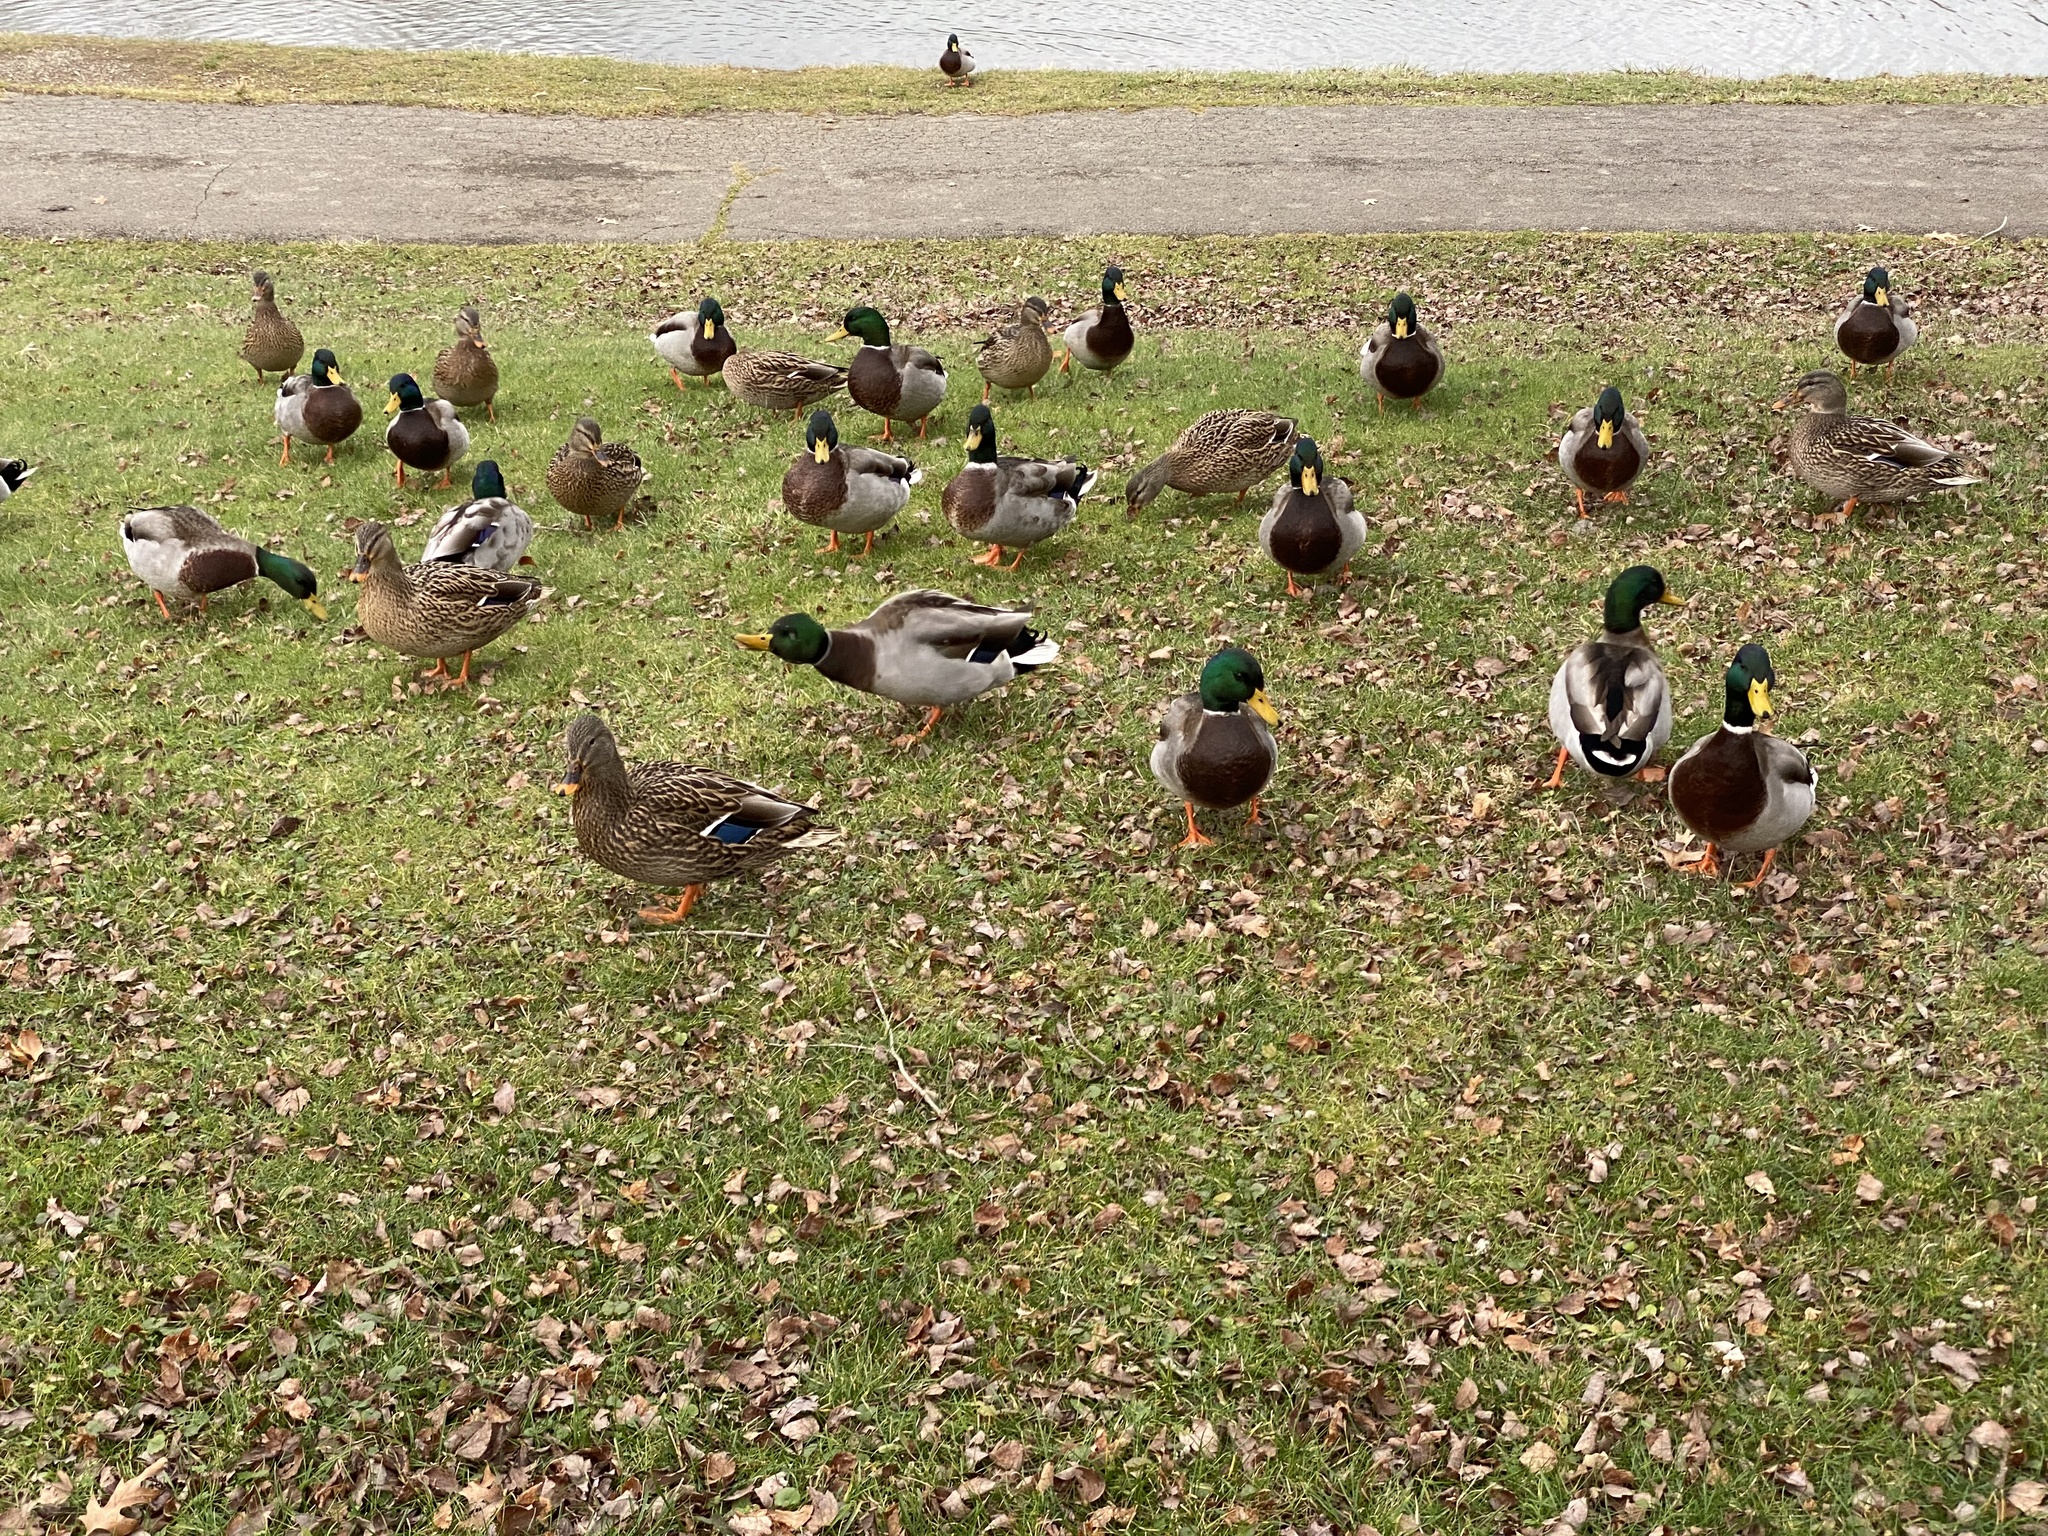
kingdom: Animalia
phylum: Chordata
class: Aves
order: Anseriformes
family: Anatidae
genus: Anas
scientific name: Anas platyrhynchos
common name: Mallard
